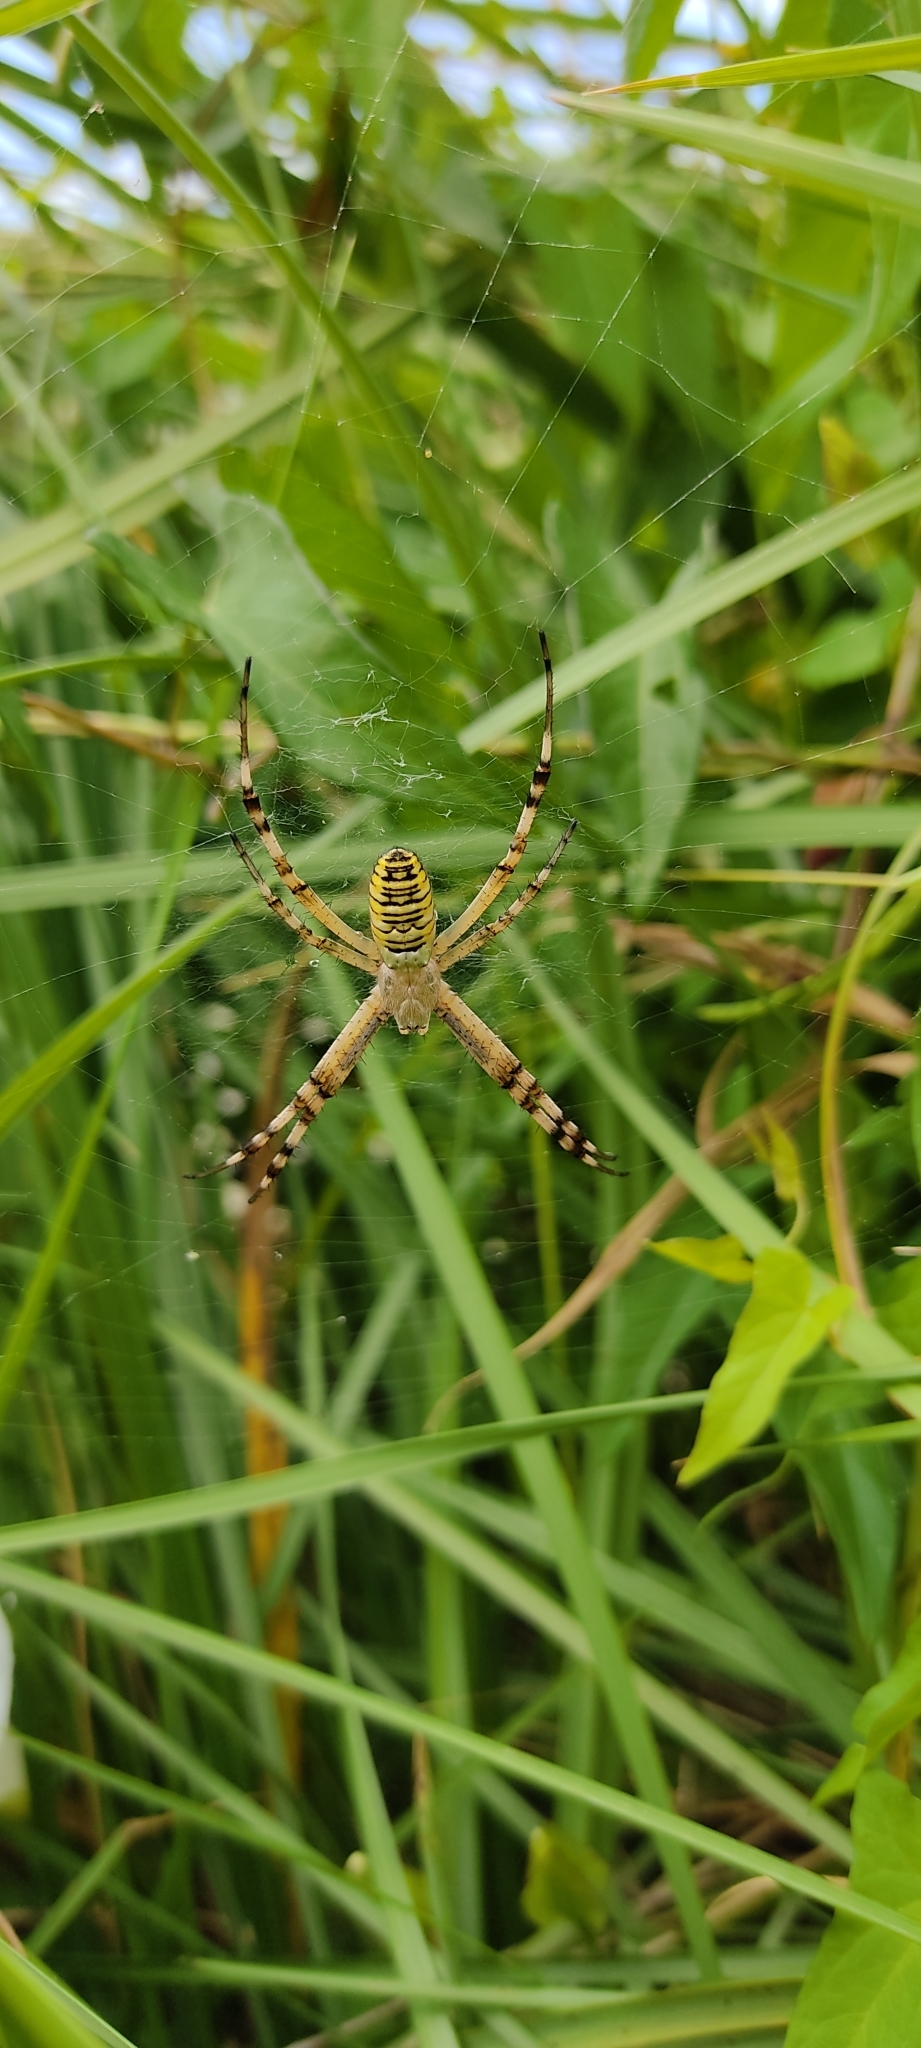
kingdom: Animalia
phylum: Arthropoda
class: Arachnida
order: Araneae
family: Araneidae
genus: Argiope
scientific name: Argiope bruennichi
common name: Wasp spider
